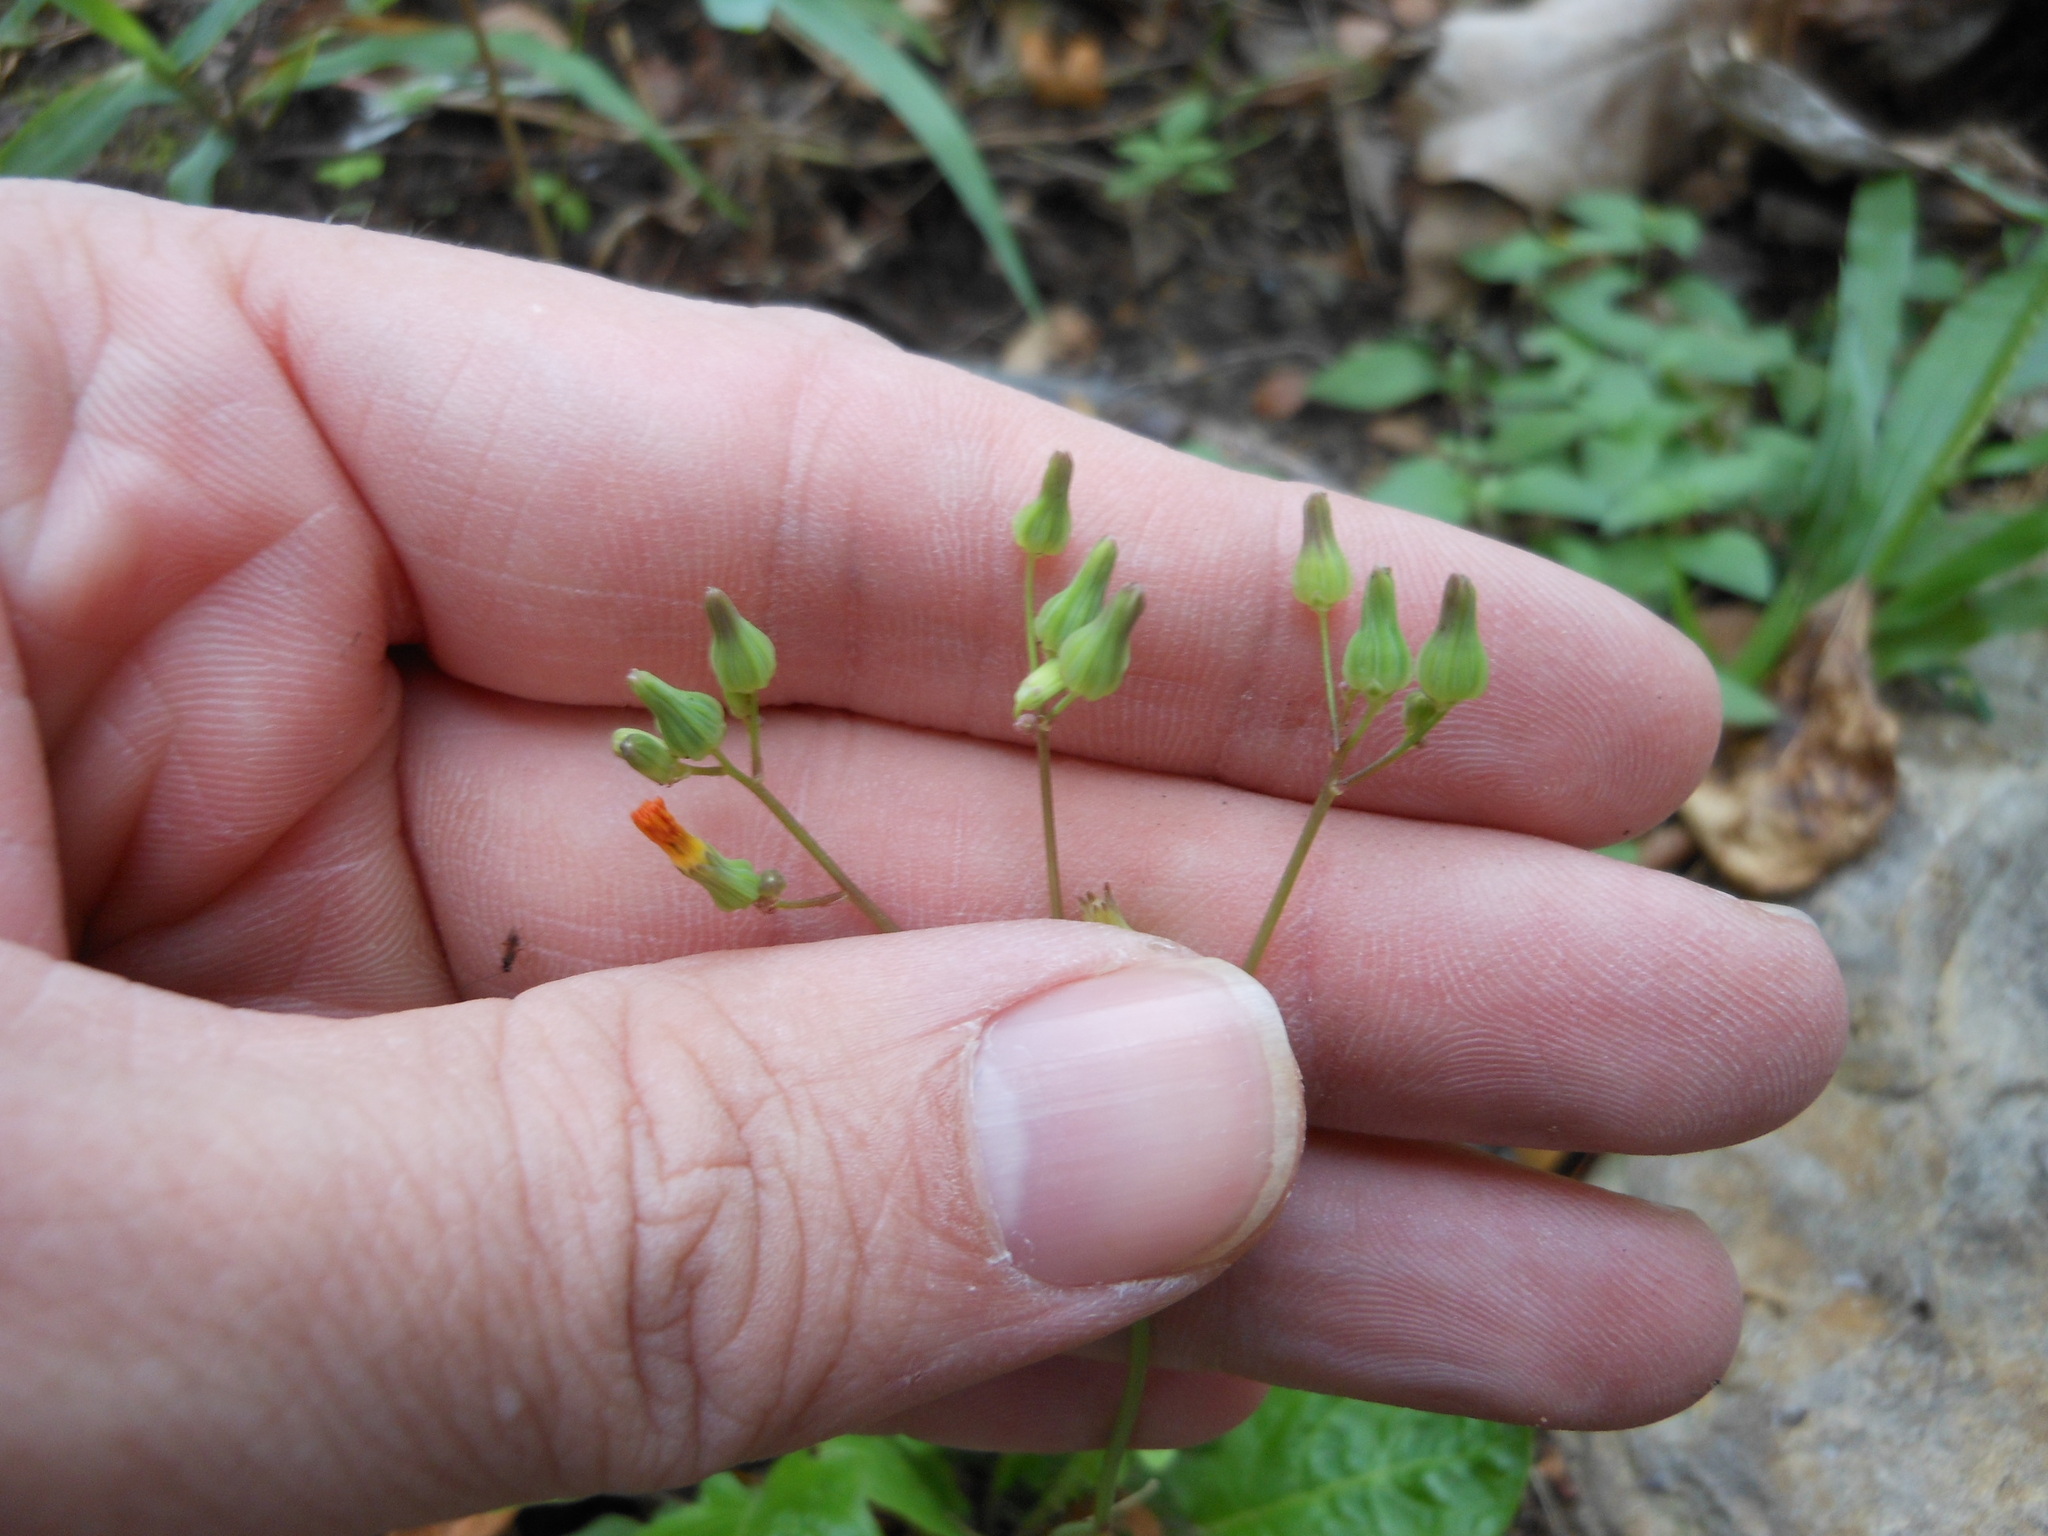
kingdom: Plantae
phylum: Tracheophyta
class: Magnoliopsida
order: Asterales
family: Asteraceae
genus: Youngia
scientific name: Youngia japonica
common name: Oriental false hawksbeard
